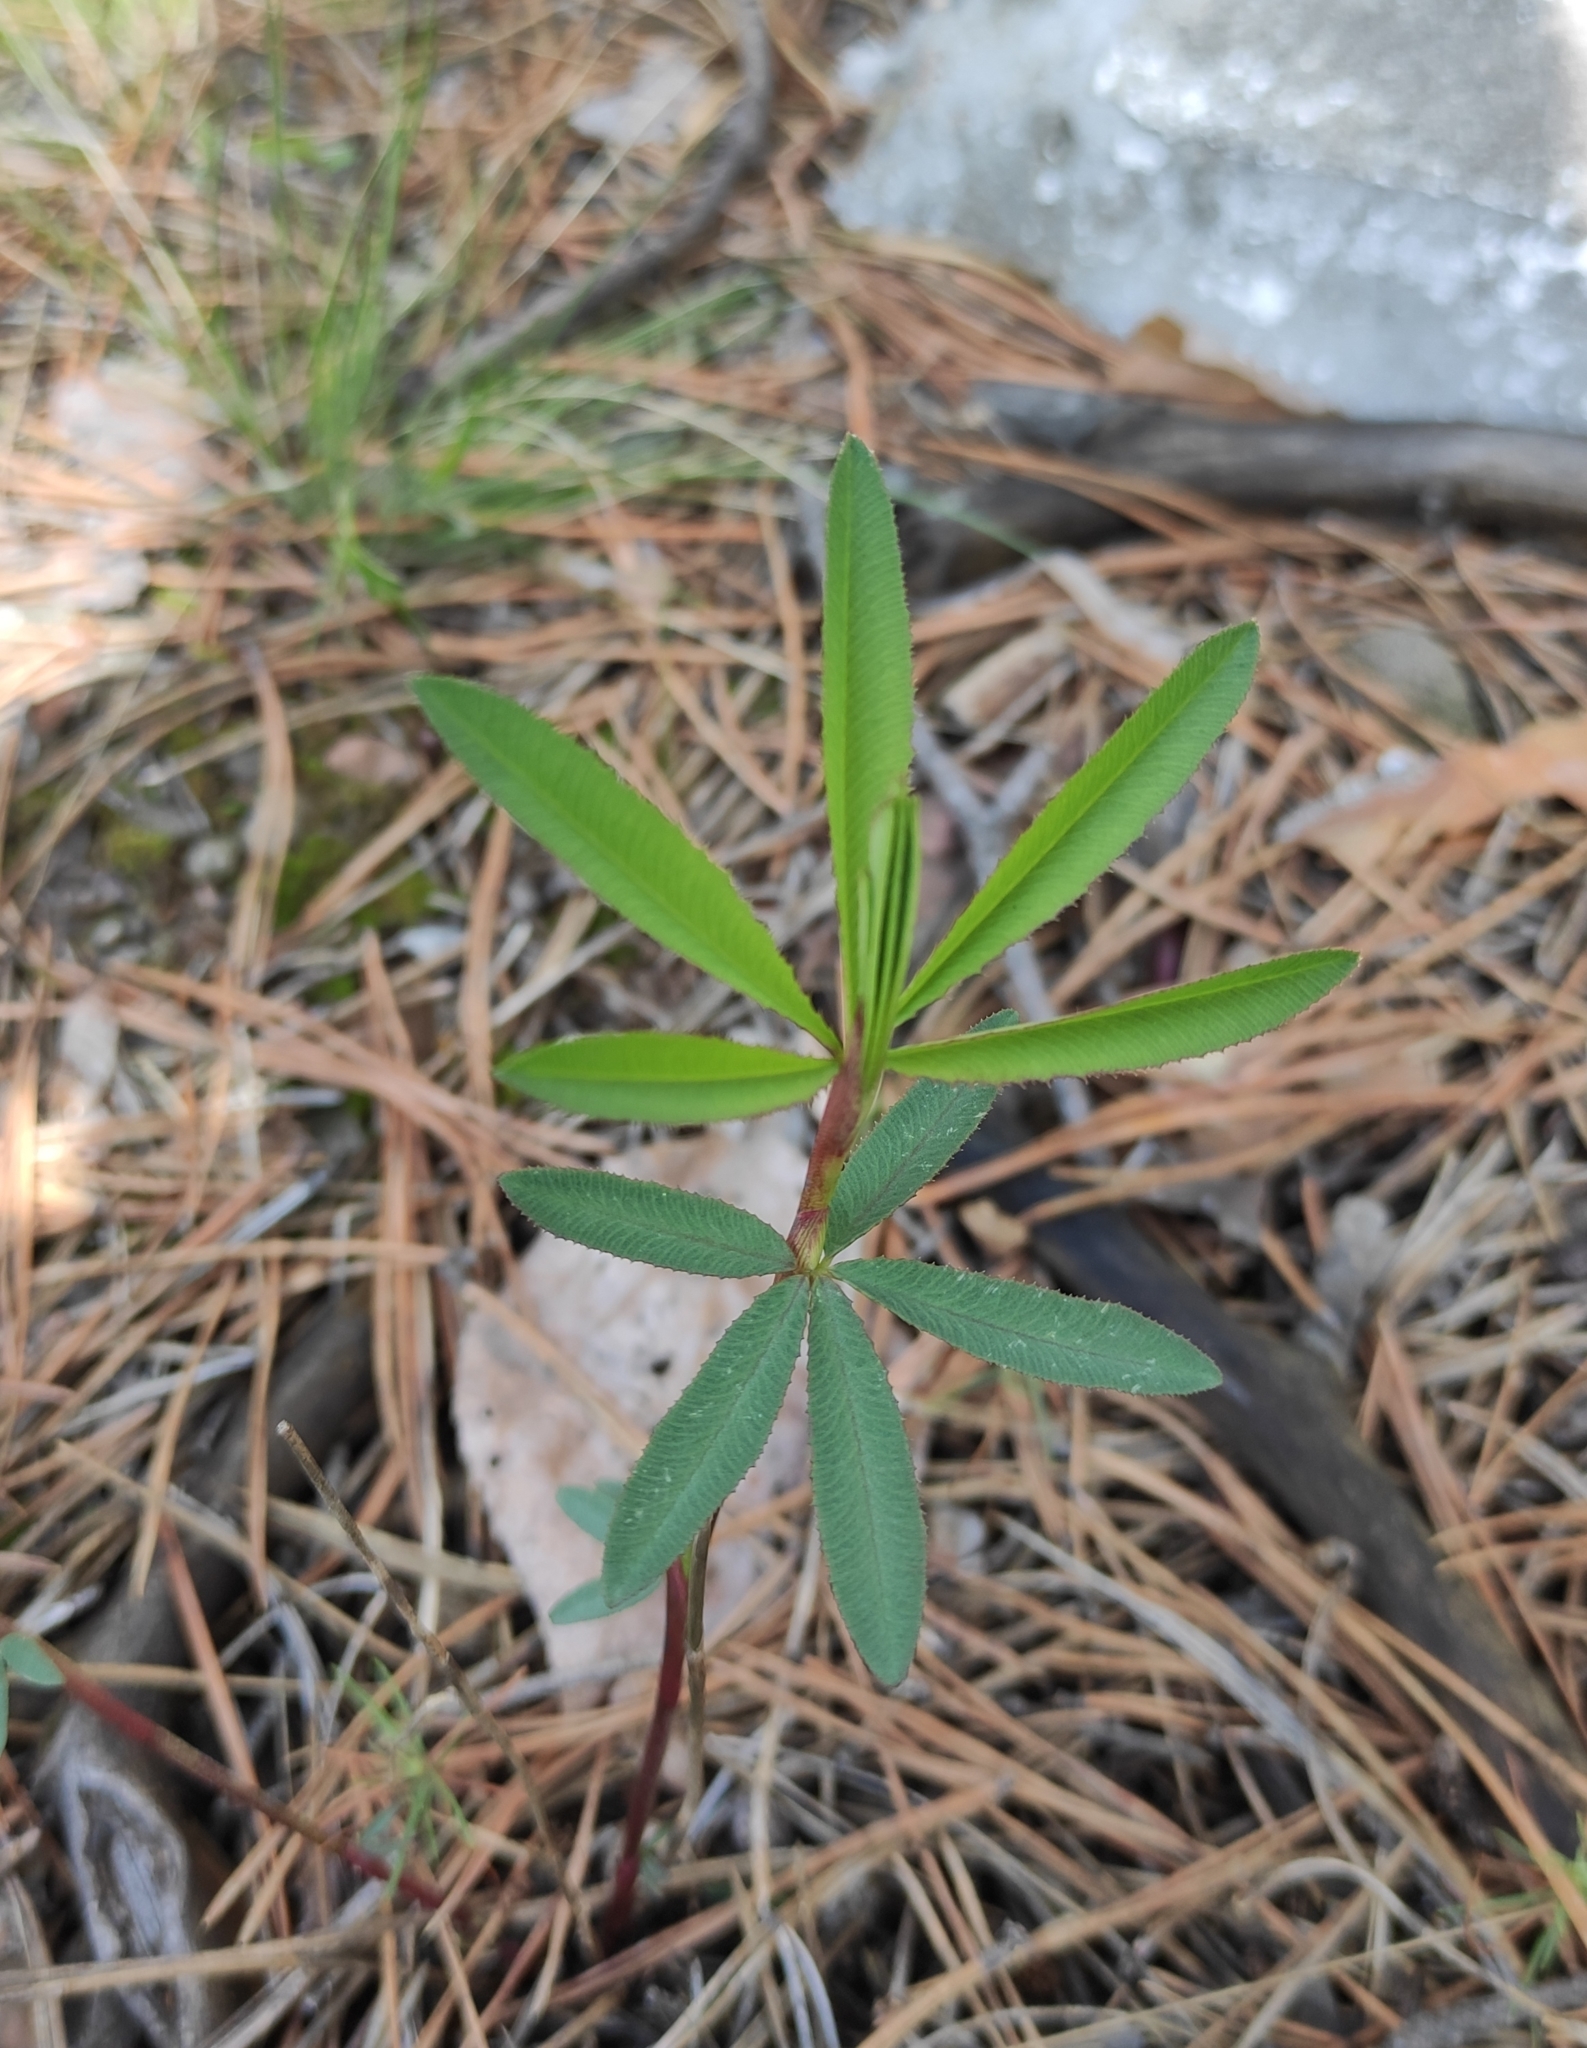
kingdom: Plantae
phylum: Tracheophyta
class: Magnoliopsida
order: Fabales
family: Fabaceae
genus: Trifolium
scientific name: Trifolium lupinaster
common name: Lupine clover
